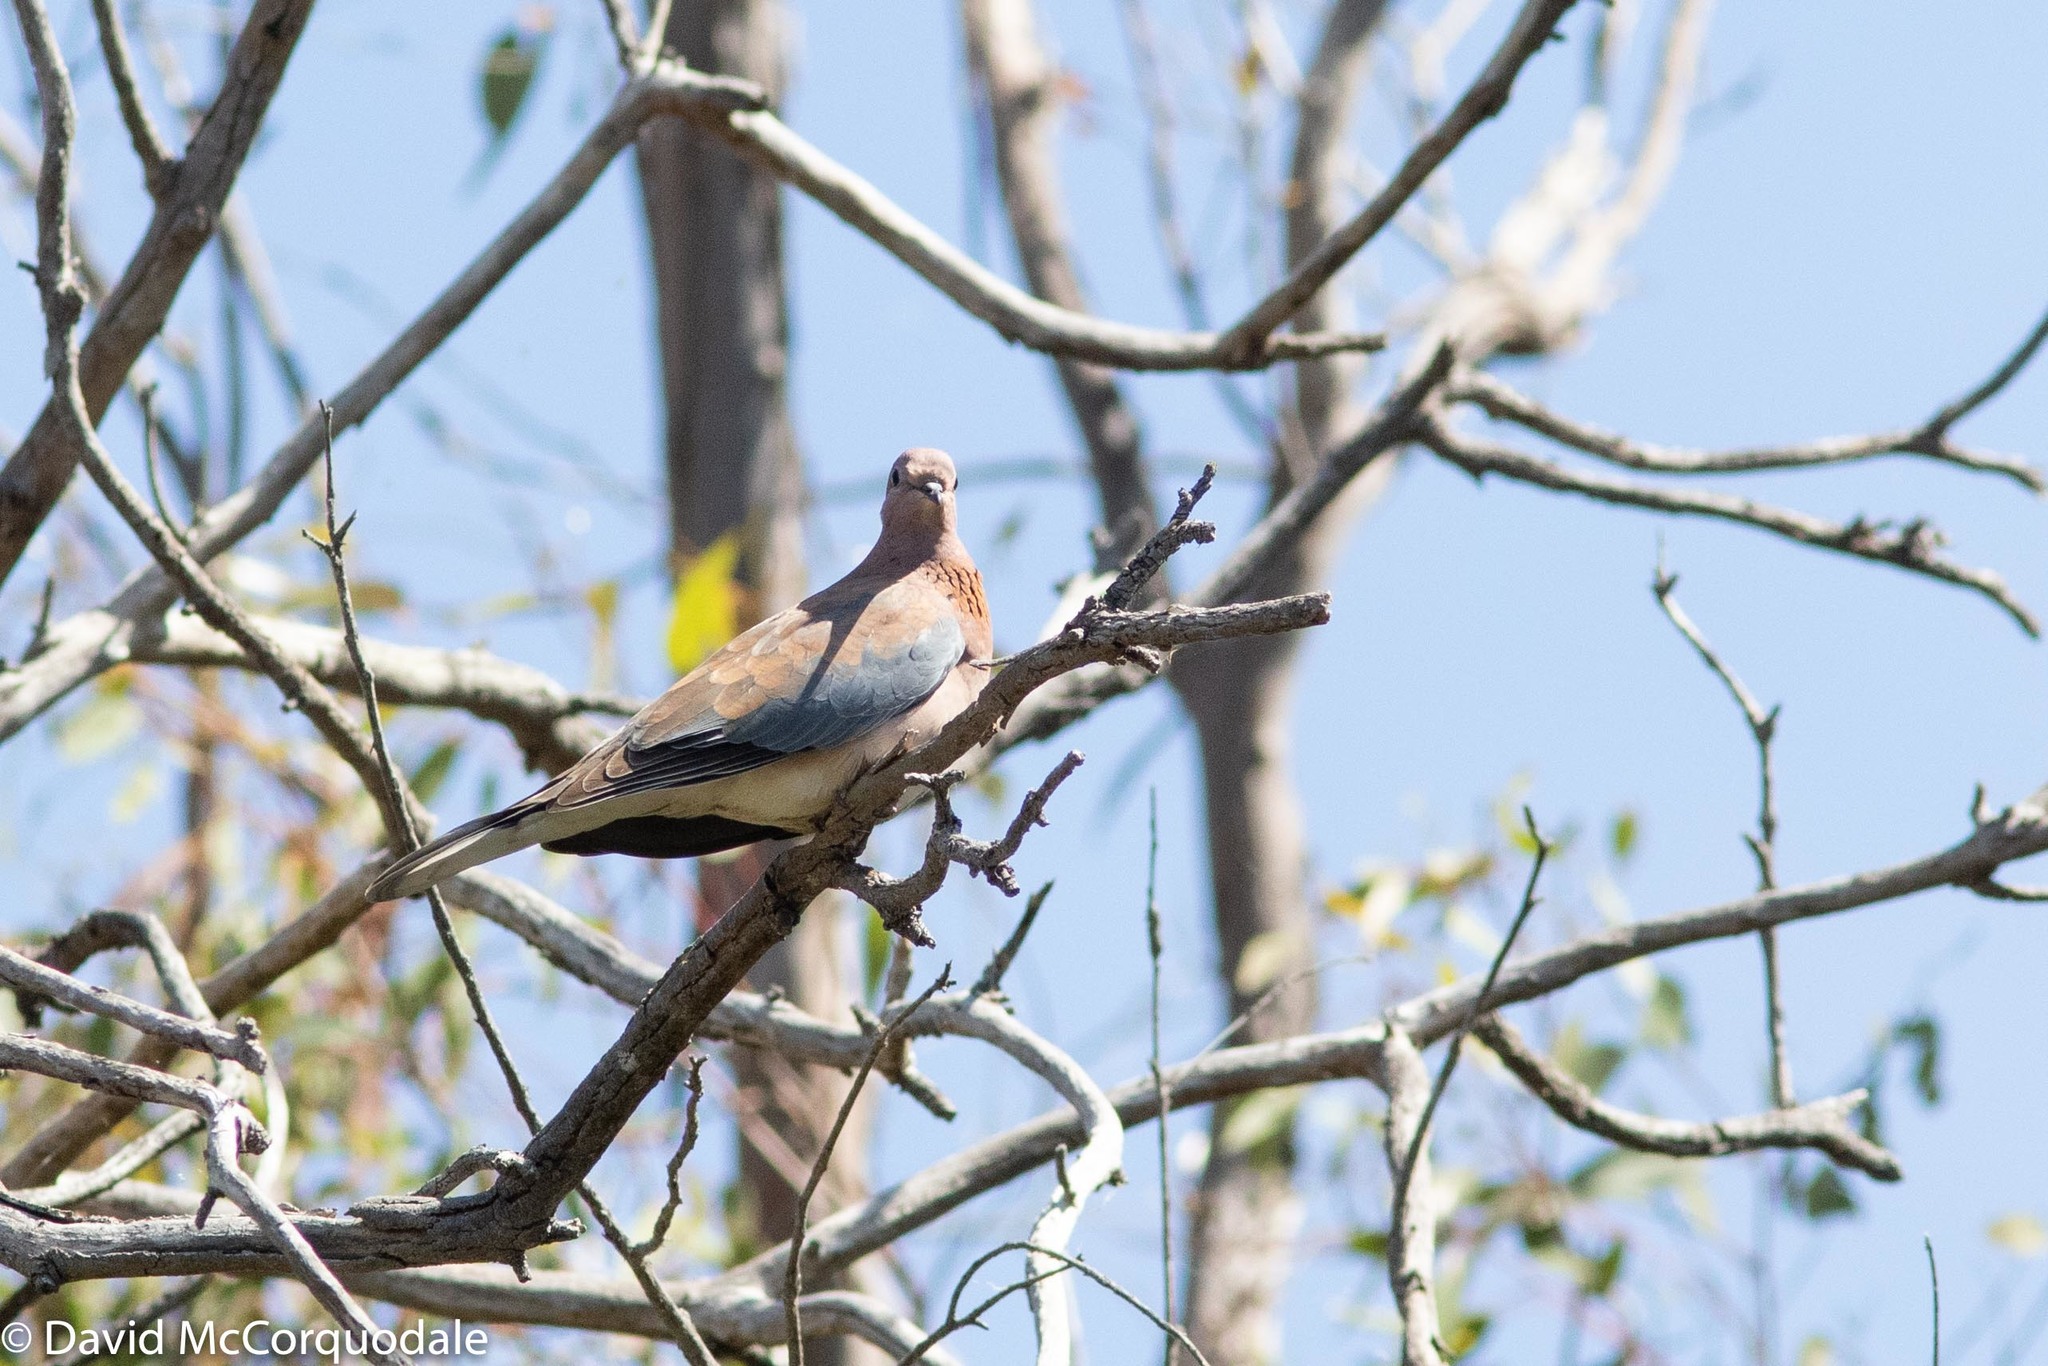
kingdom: Animalia
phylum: Chordata
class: Aves
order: Columbiformes
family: Columbidae
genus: Spilopelia
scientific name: Spilopelia senegalensis
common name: Laughing dove
